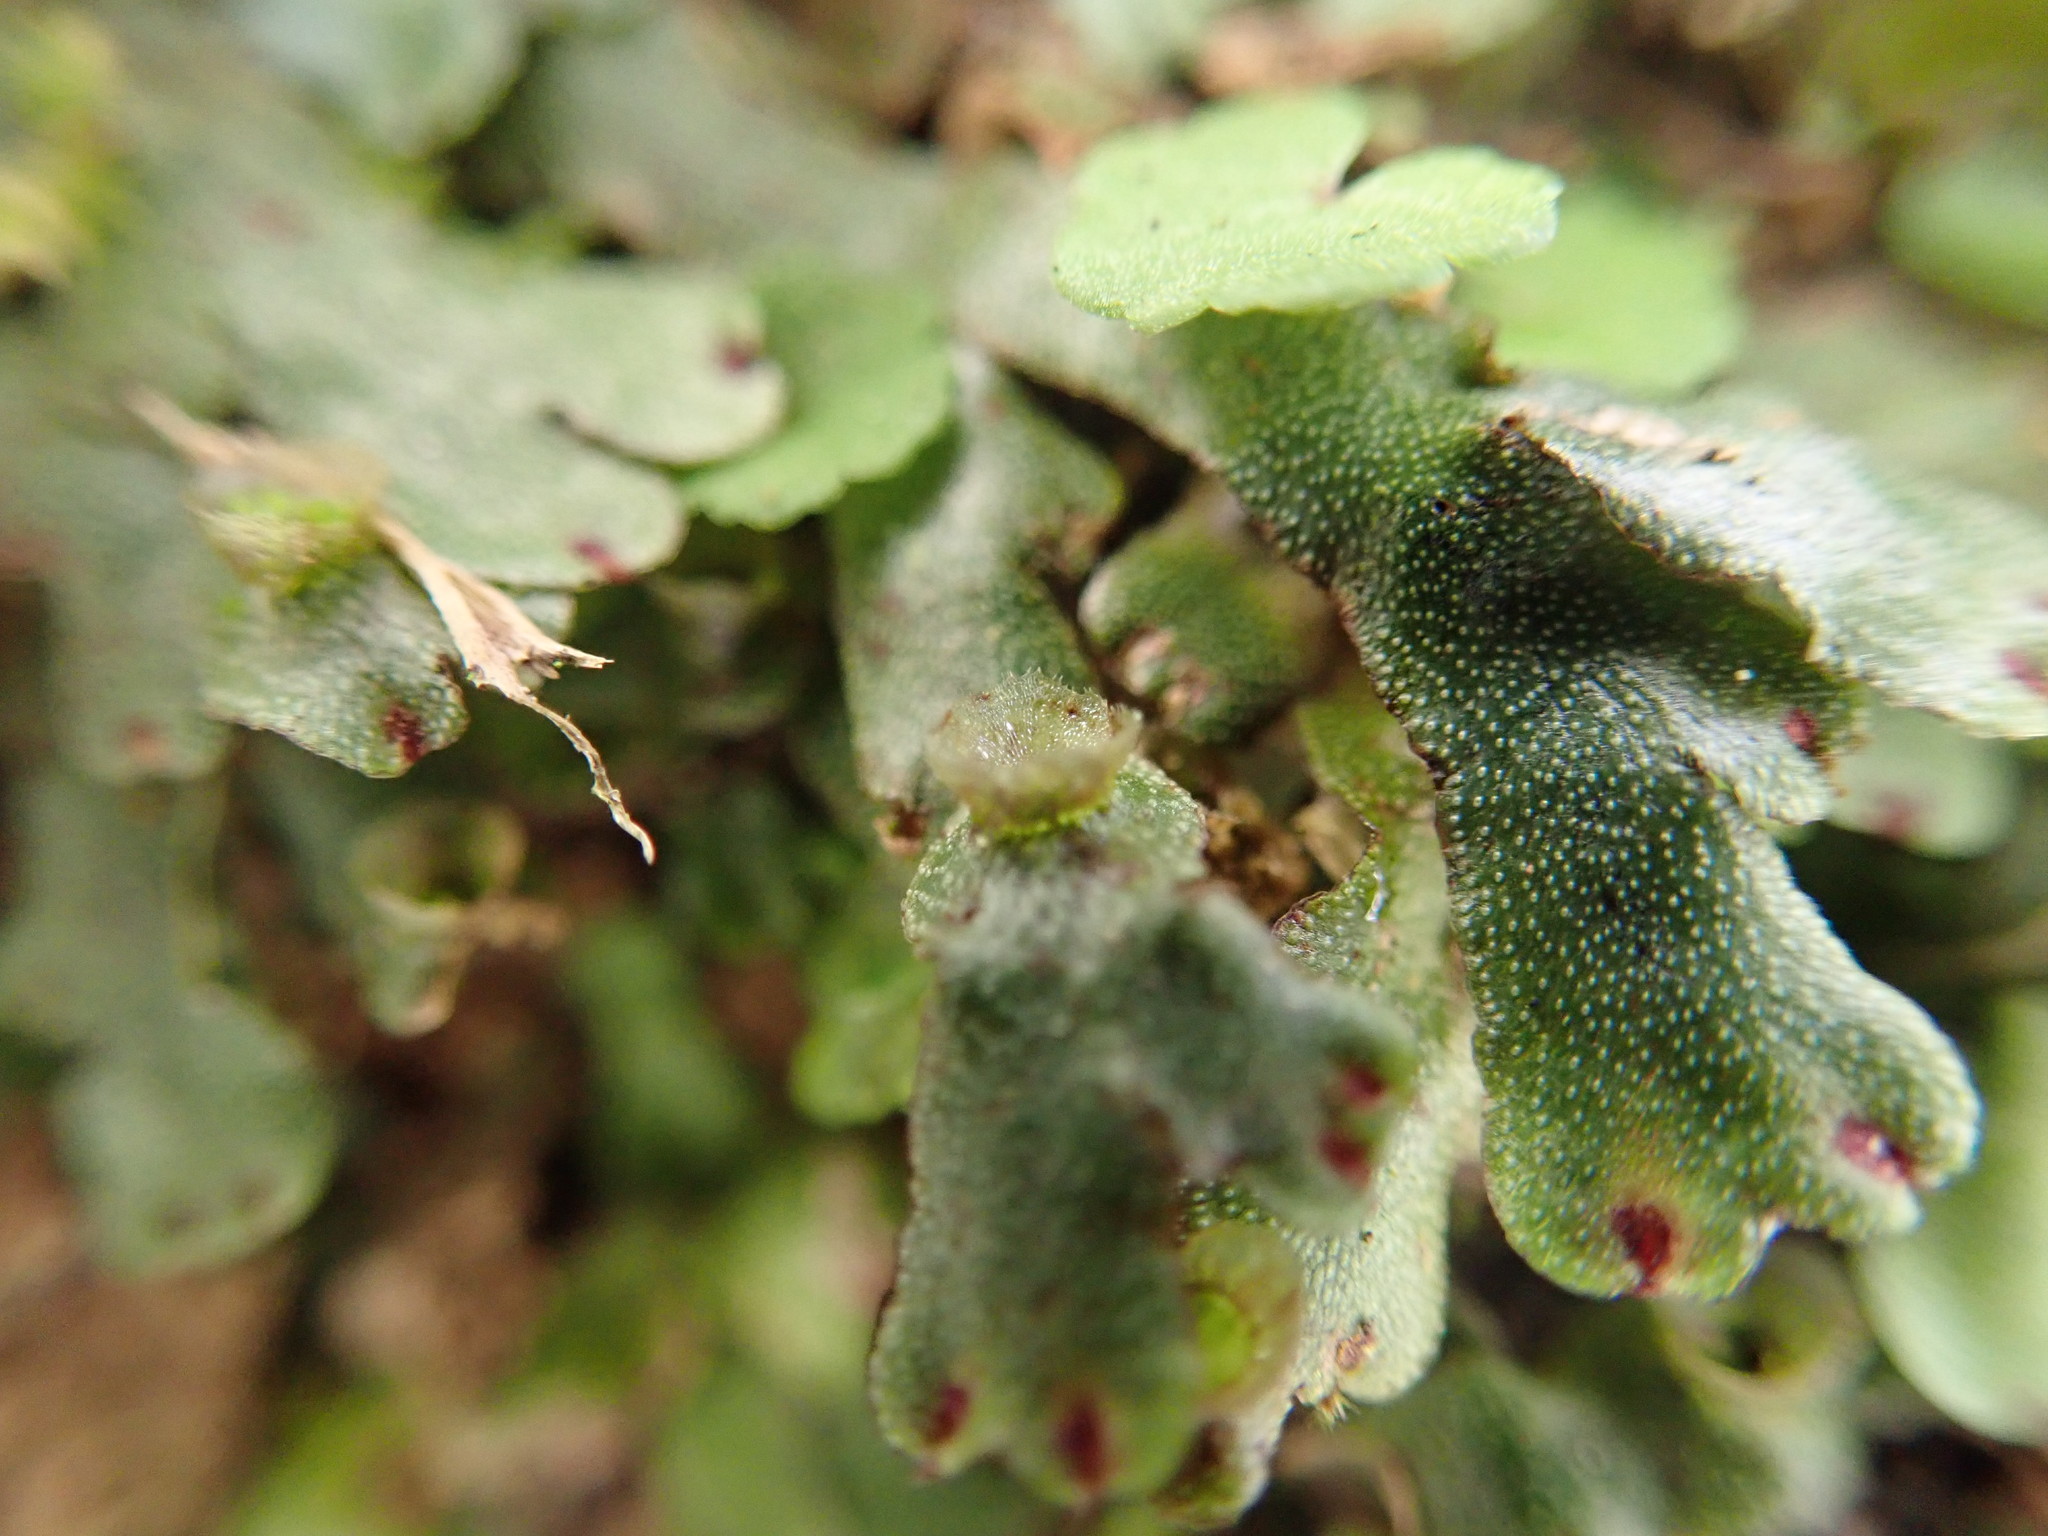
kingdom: Plantae
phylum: Marchantiophyta
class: Marchantiopsida
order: Marchantiales
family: Marchantiaceae
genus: Marchantia
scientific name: Marchantia emarginata
